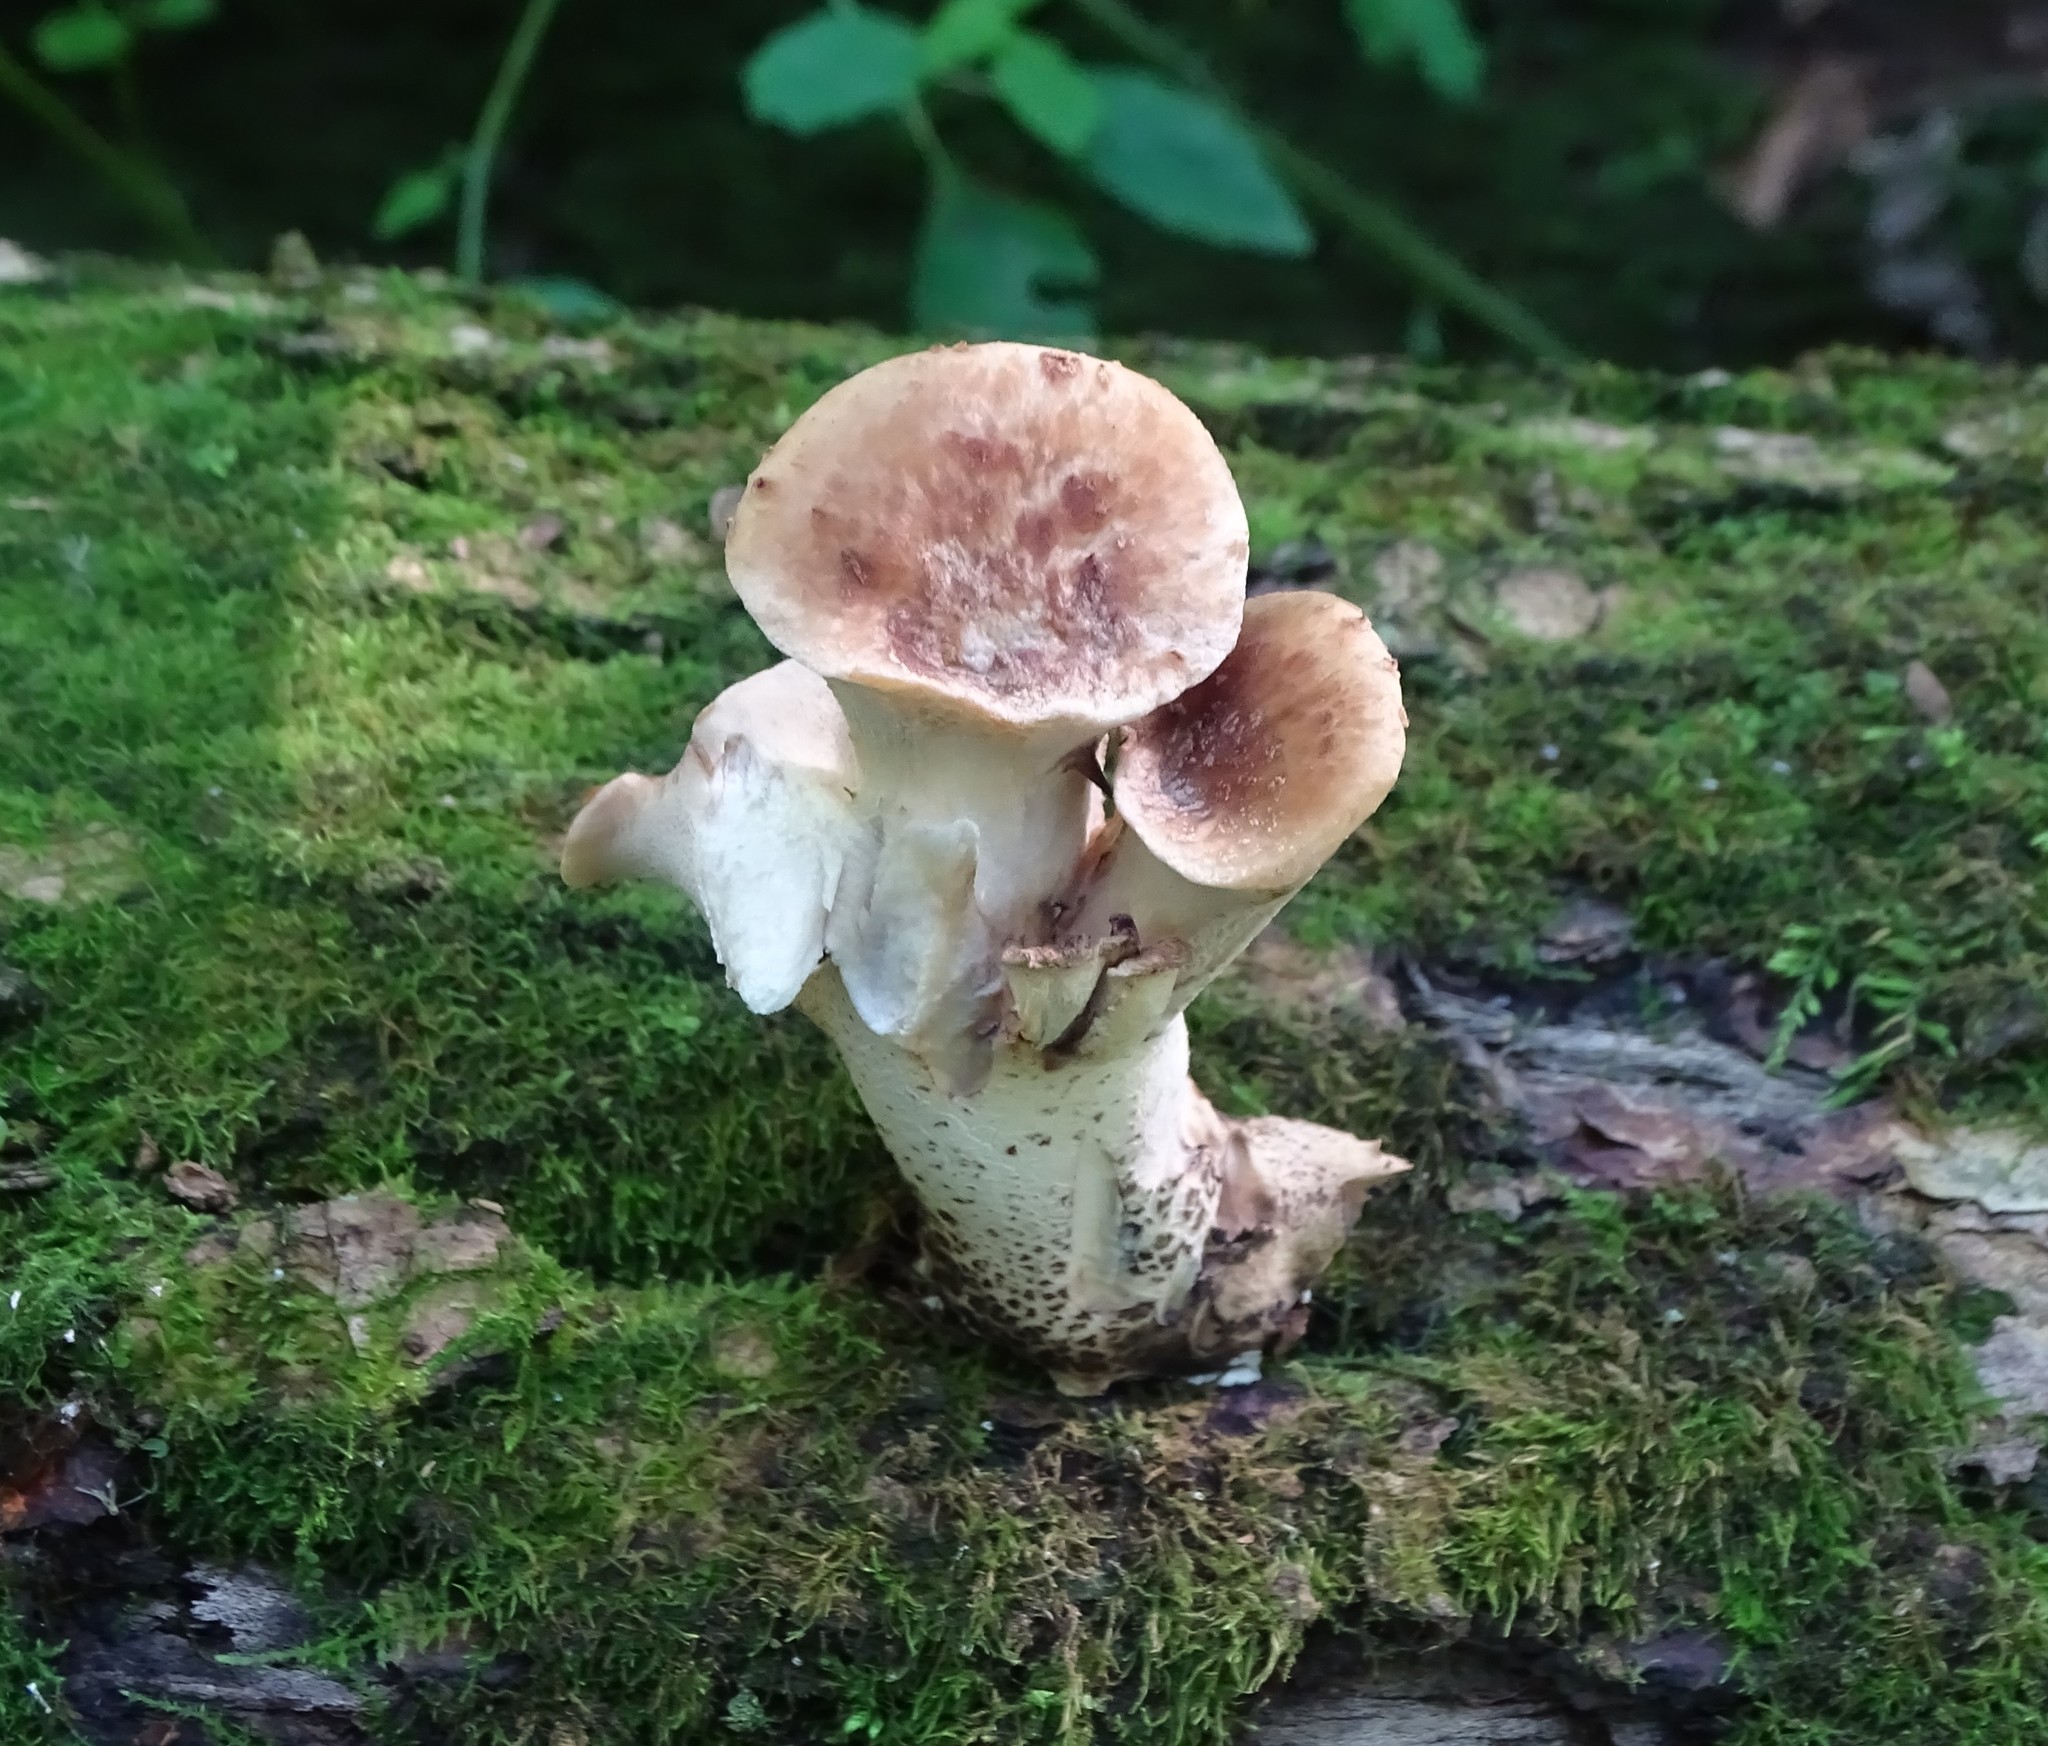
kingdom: Fungi
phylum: Basidiomycota
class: Agaricomycetes
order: Polyporales
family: Polyporaceae
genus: Cerioporus
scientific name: Cerioporus squamosus
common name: Dryad's saddle
